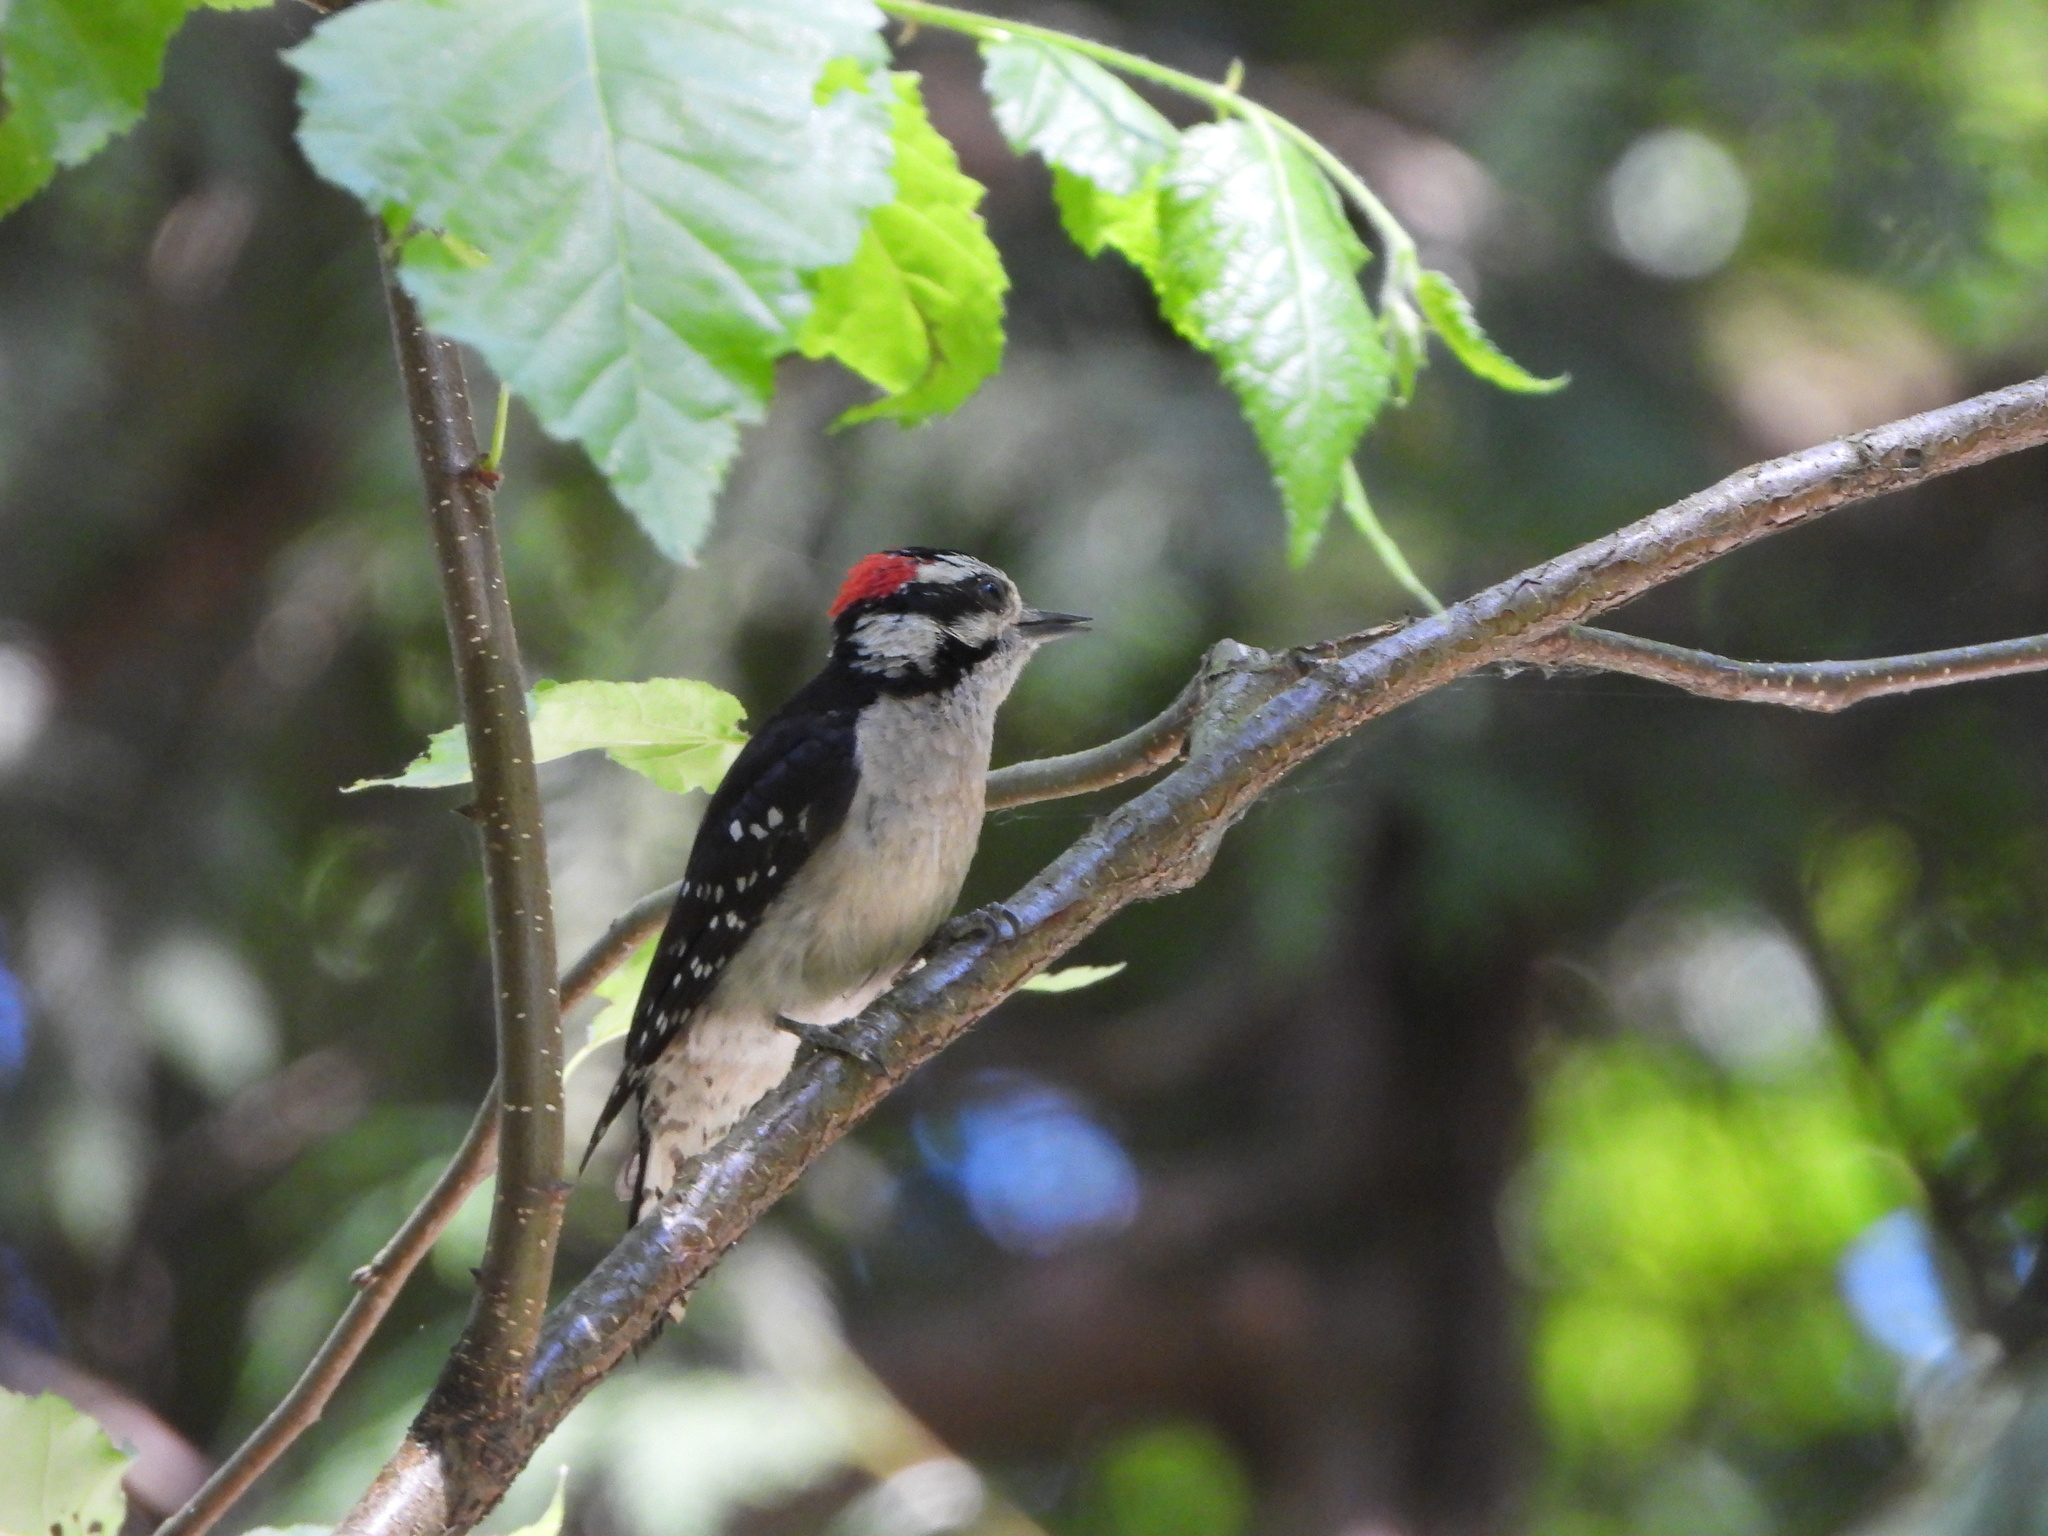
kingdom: Animalia
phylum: Chordata
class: Aves
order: Piciformes
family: Picidae
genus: Dryobates
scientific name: Dryobates pubescens
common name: Downy woodpecker
